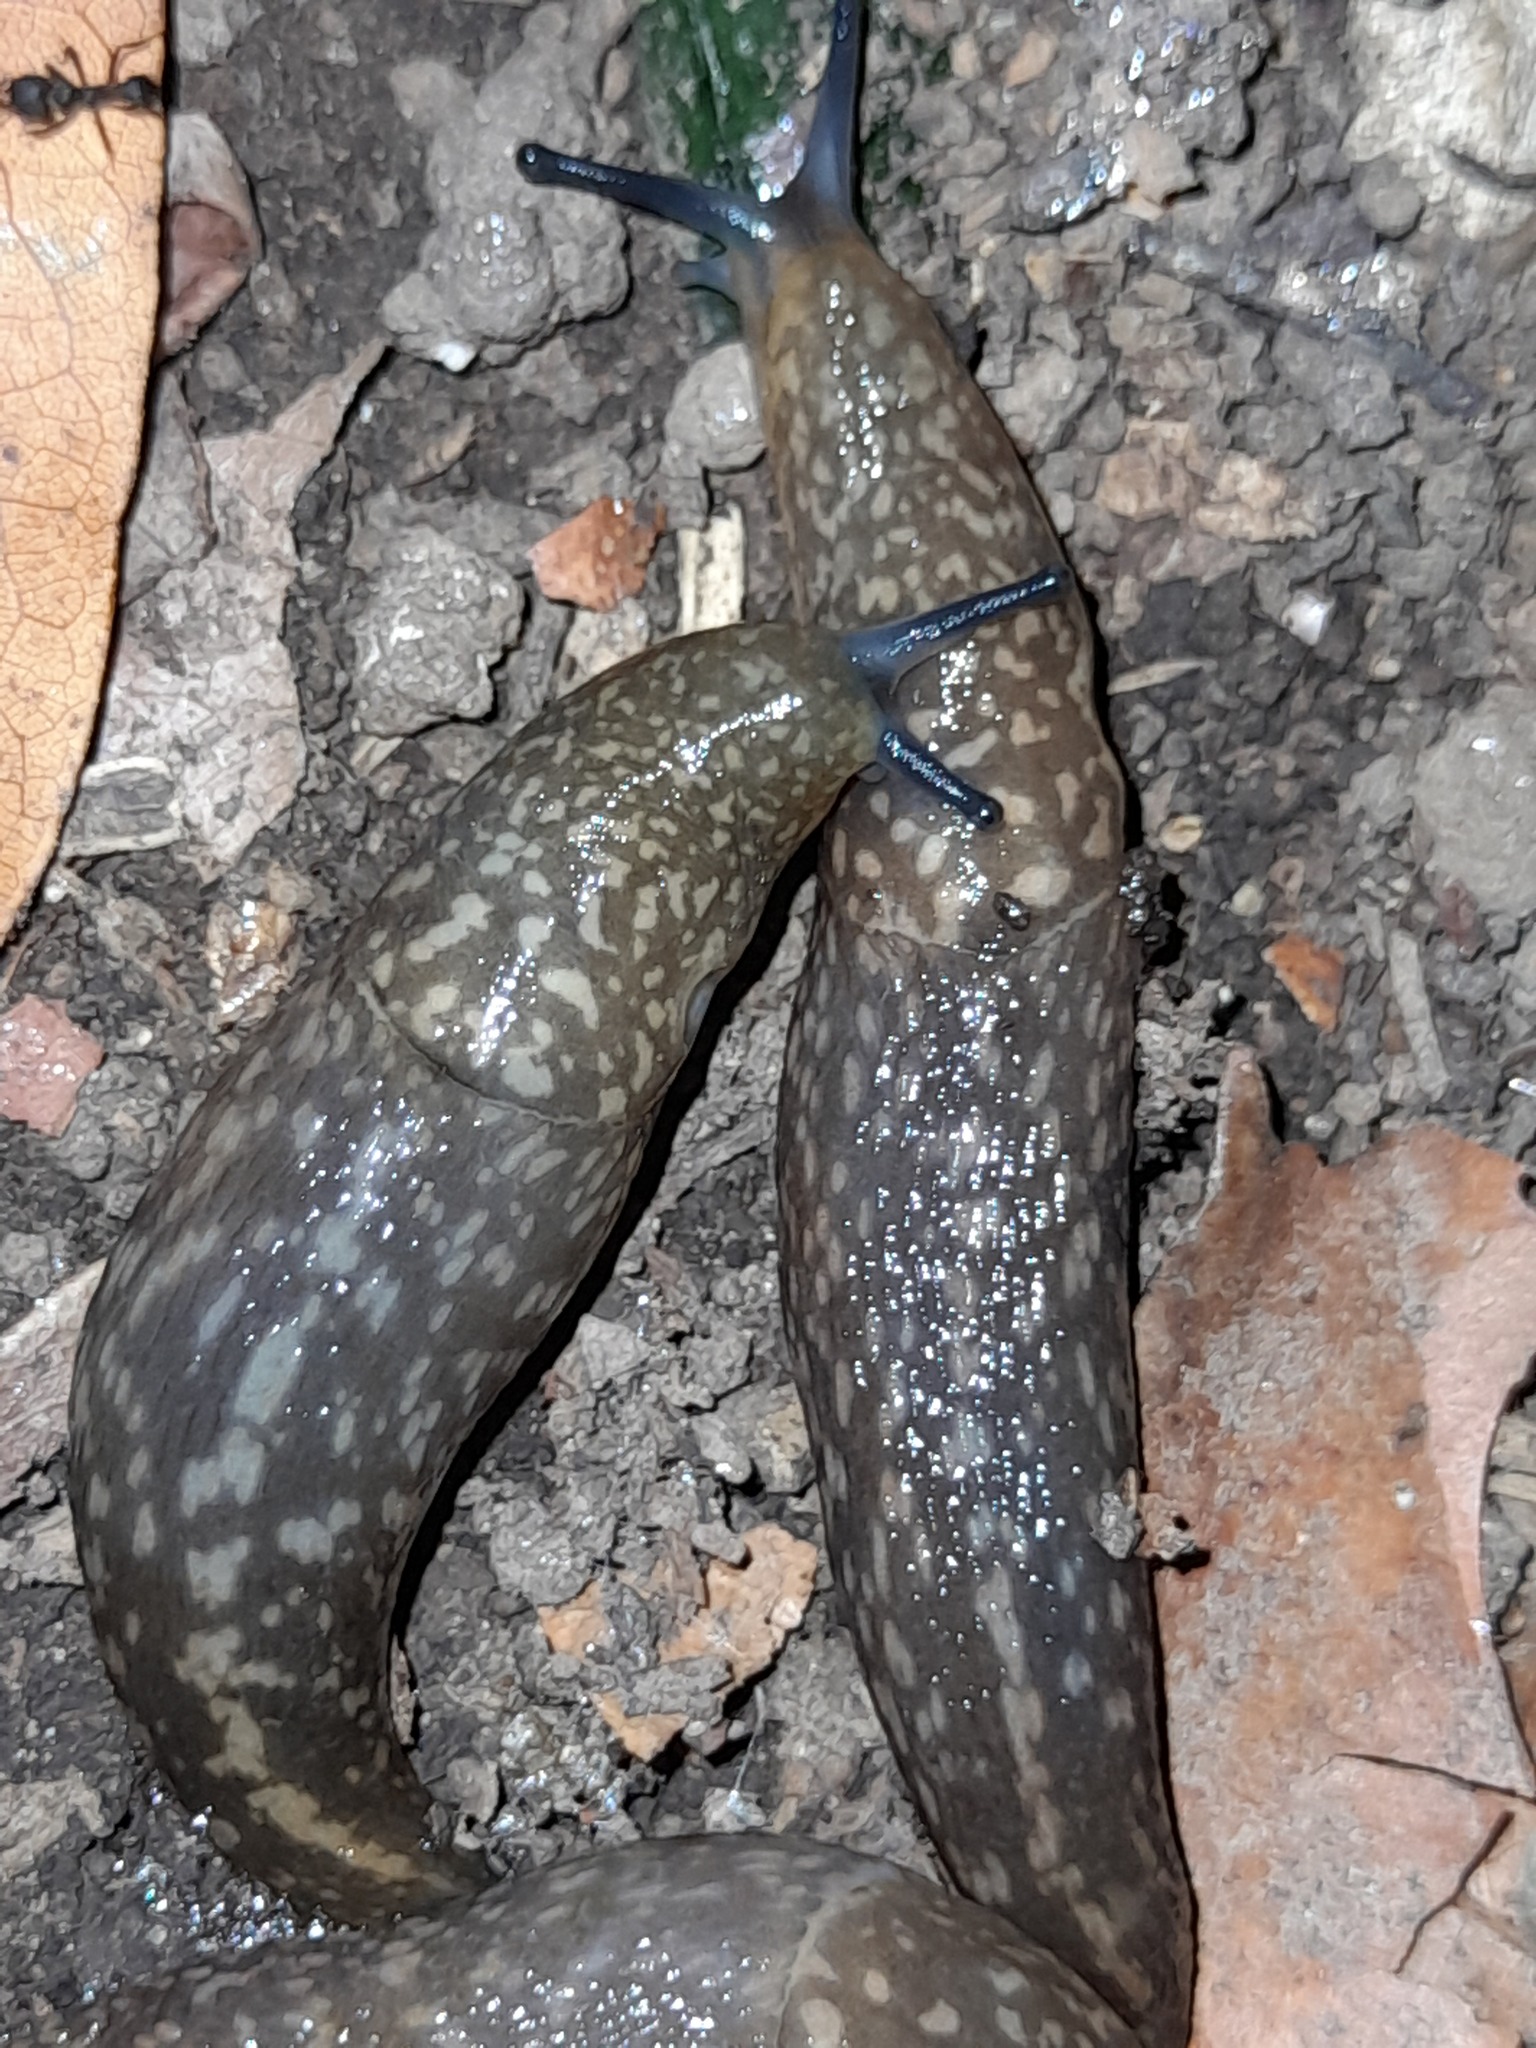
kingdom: Animalia
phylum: Mollusca
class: Gastropoda
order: Stylommatophora
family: Limacidae
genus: Limacus
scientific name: Limacus flavus
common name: Yellow gardenslug
